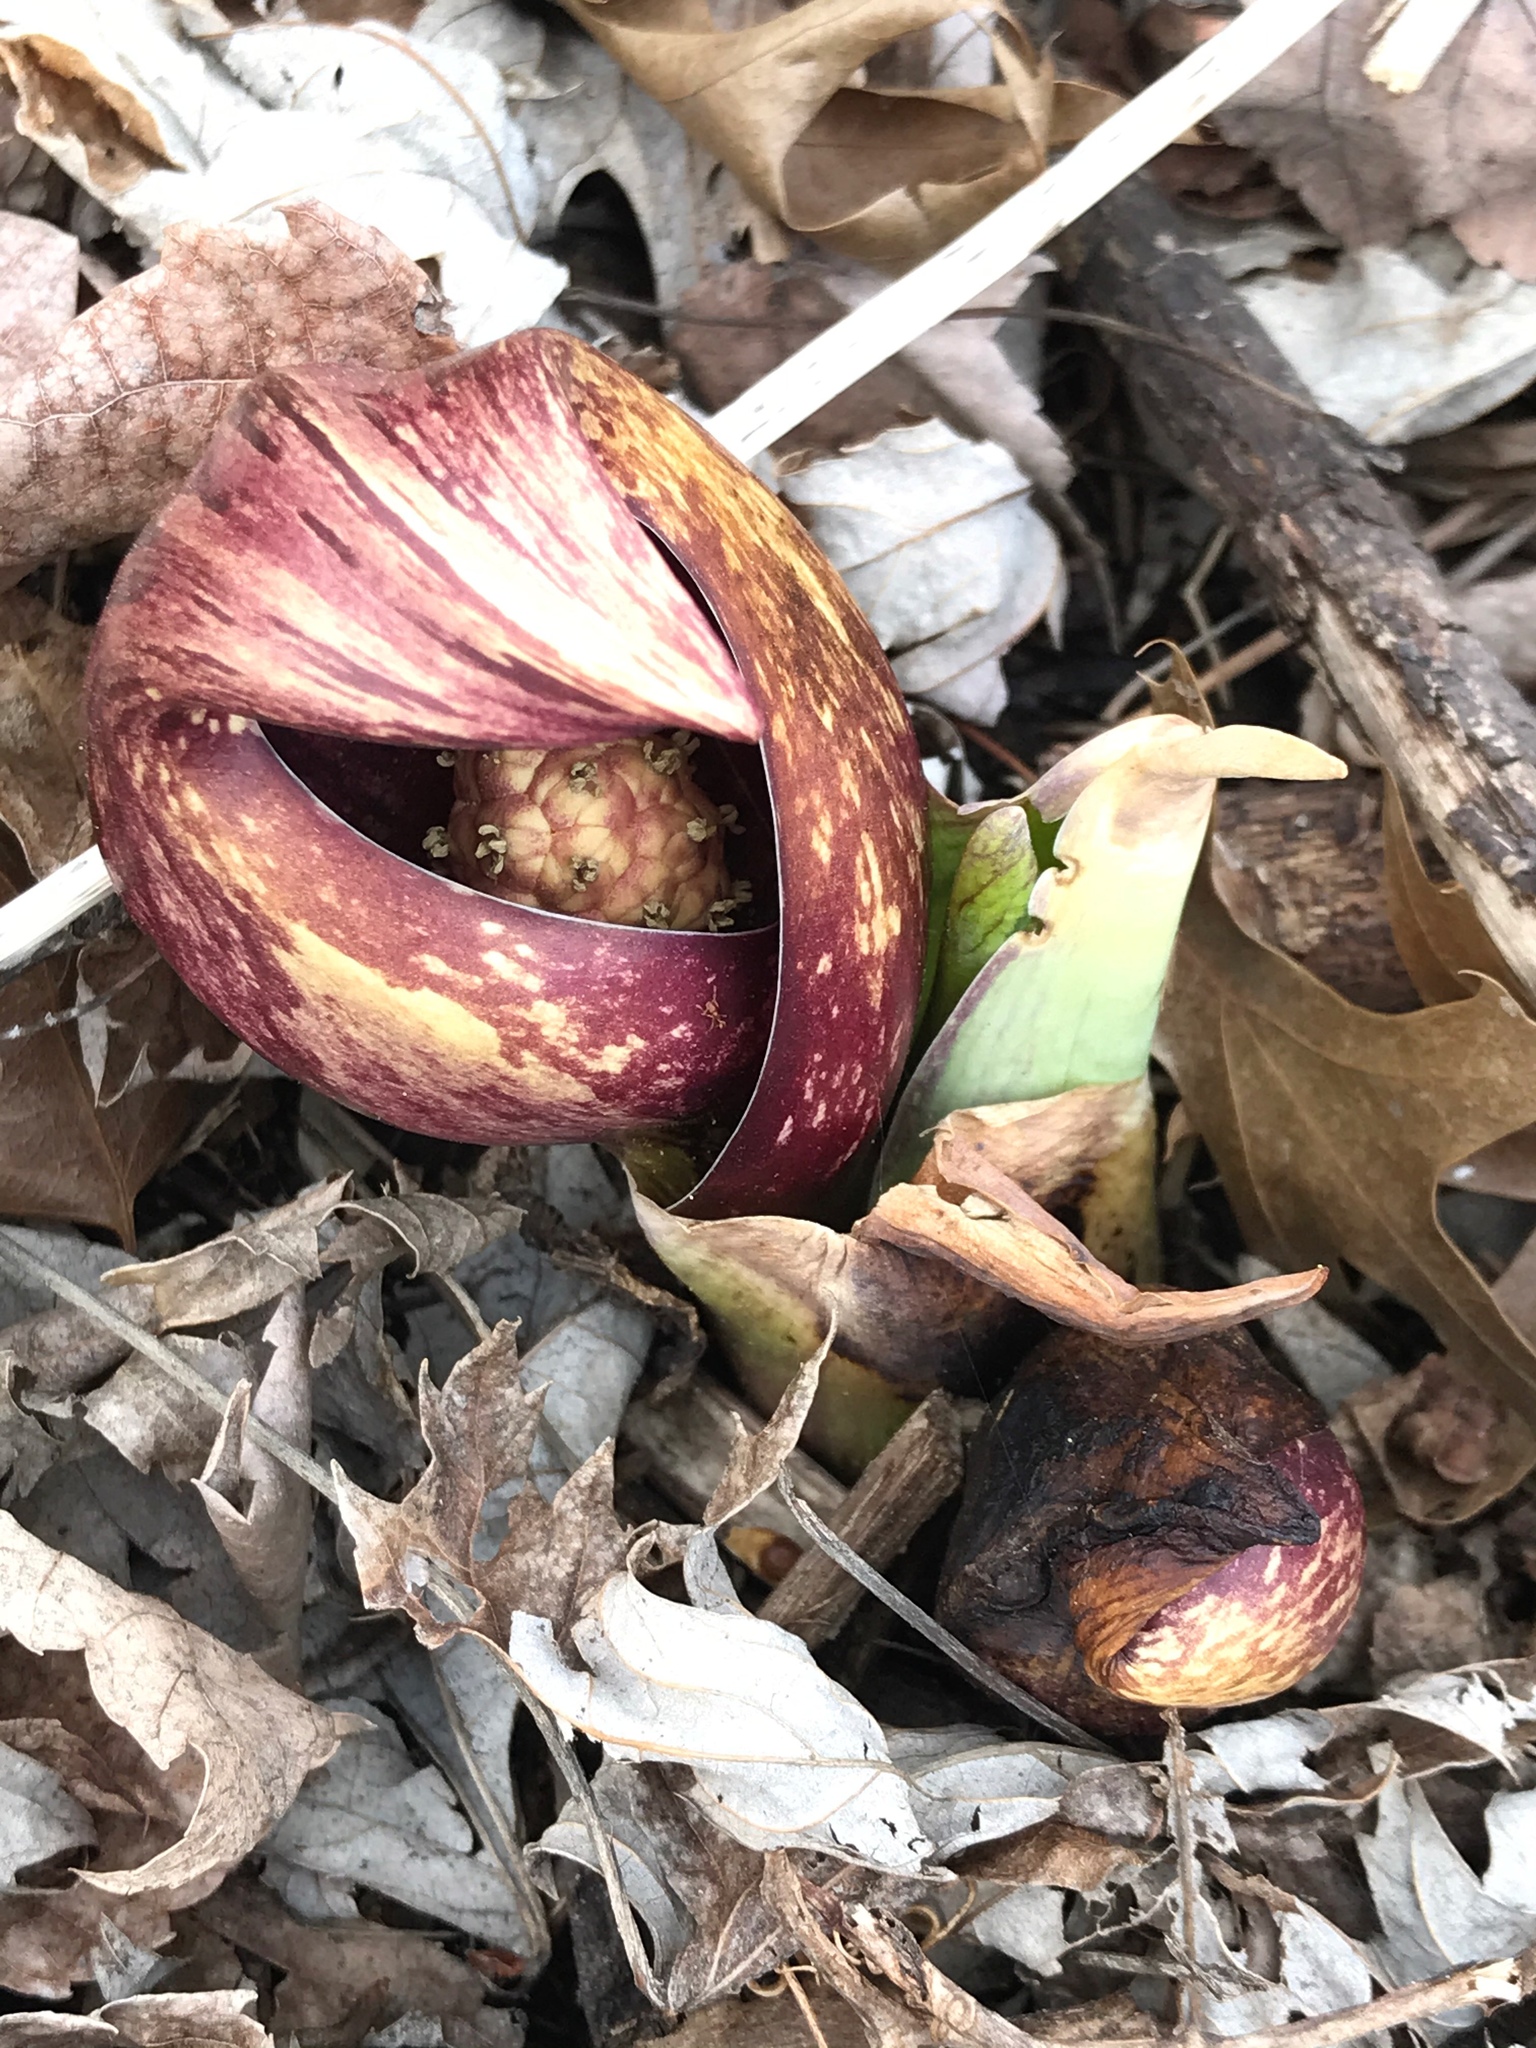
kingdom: Plantae
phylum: Tracheophyta
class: Liliopsida
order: Alismatales
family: Araceae
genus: Symplocarpus
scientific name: Symplocarpus foetidus
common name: Eastern skunk cabbage
